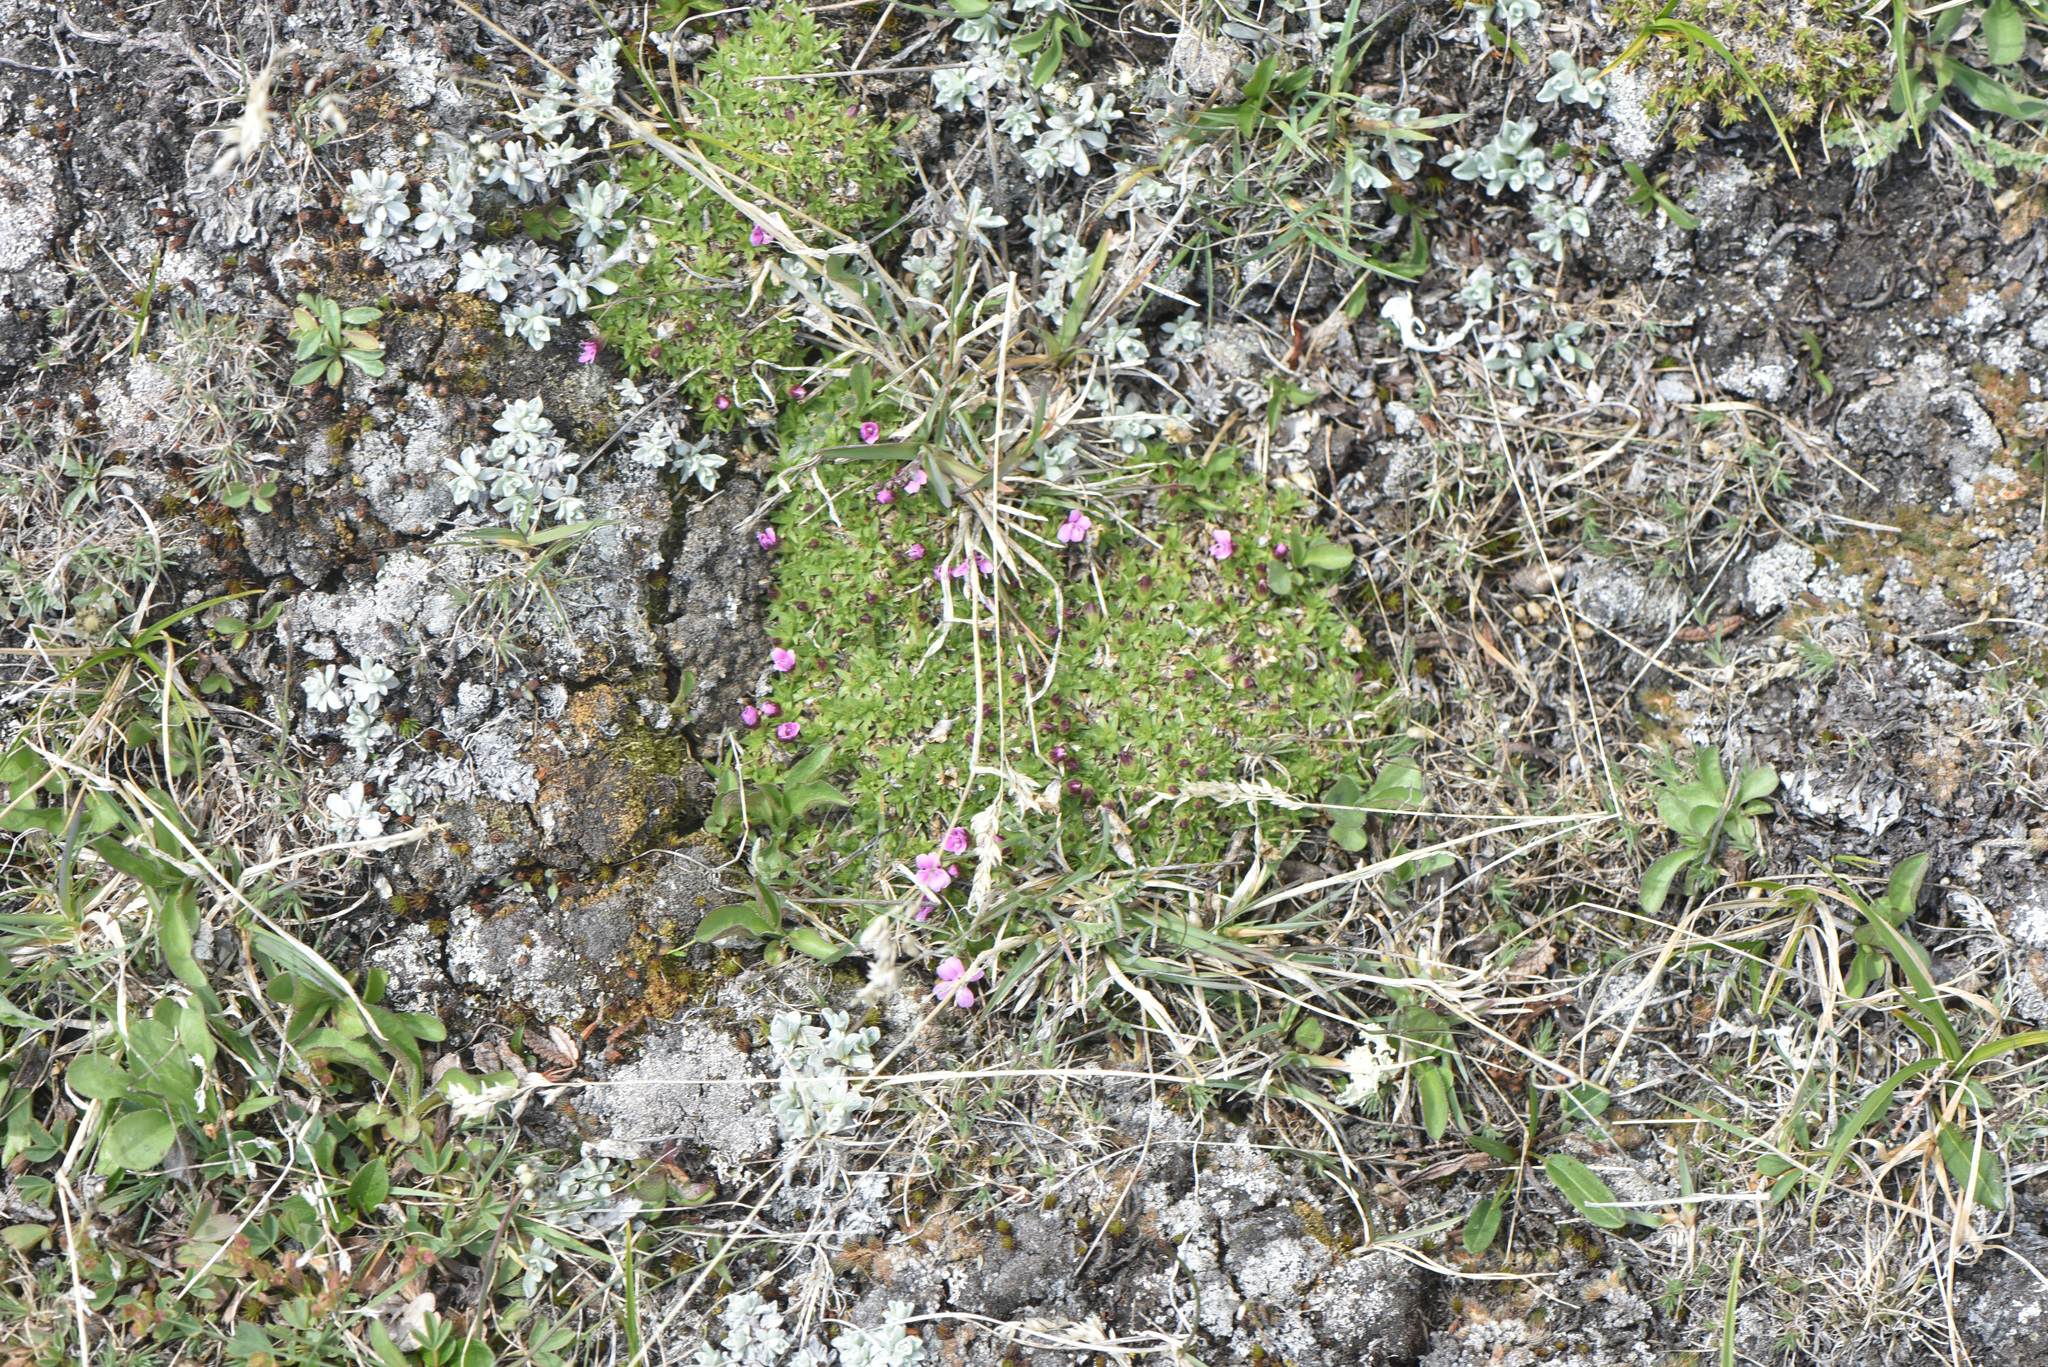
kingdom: Plantae
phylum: Tracheophyta
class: Magnoliopsida
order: Caryophyllales
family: Caryophyllaceae
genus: Silene
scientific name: Silene acaulis
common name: Moss campion
